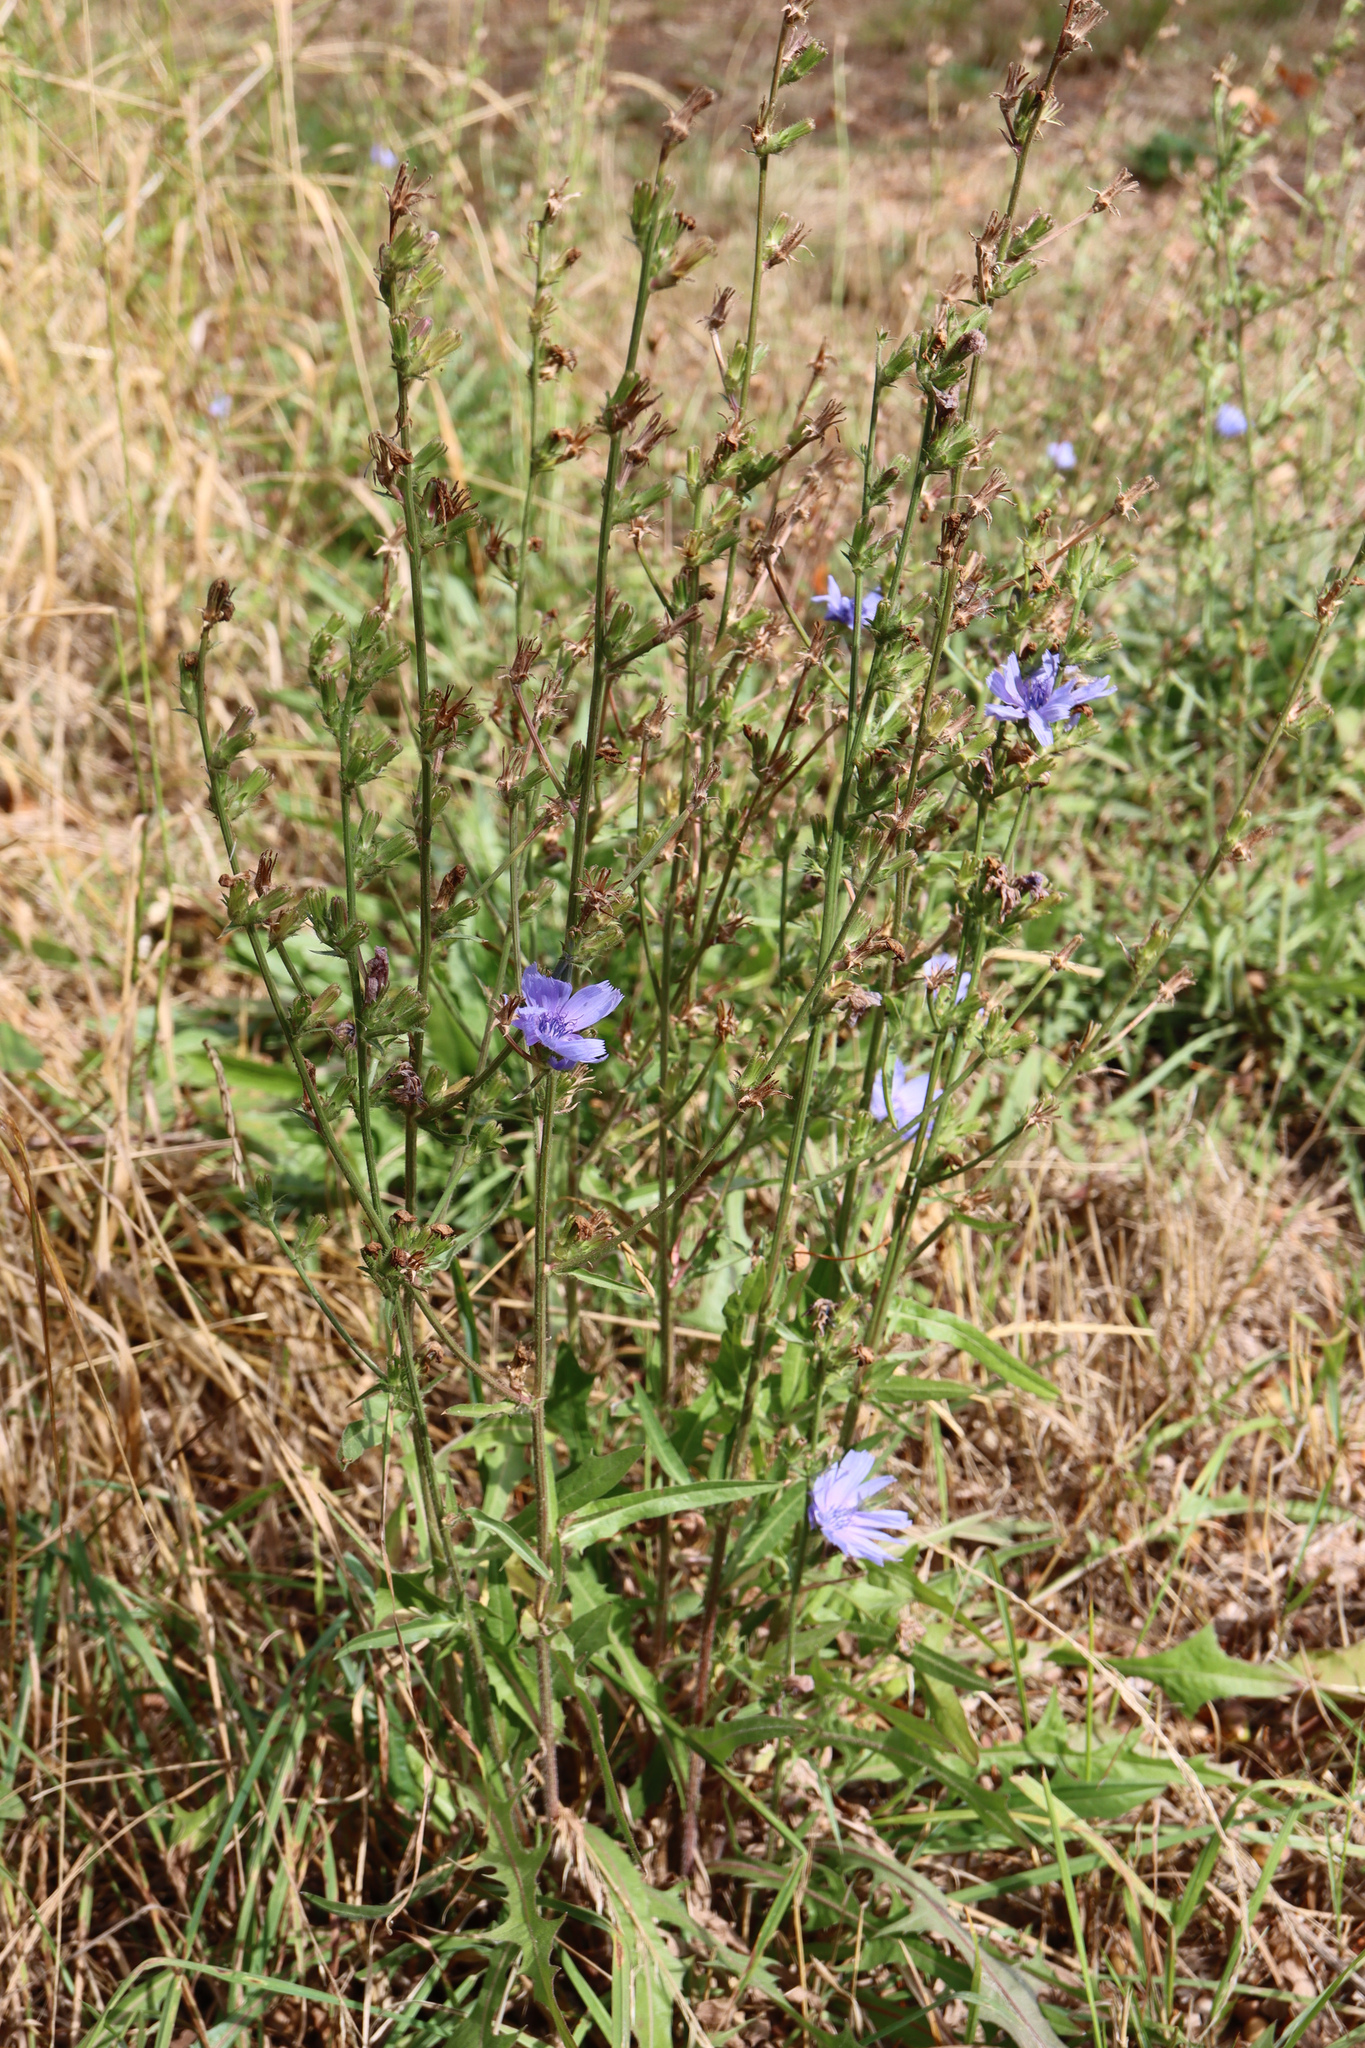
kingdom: Plantae
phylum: Tracheophyta
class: Magnoliopsida
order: Asterales
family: Asteraceae
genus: Cichorium
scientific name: Cichorium intybus
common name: Chicory
